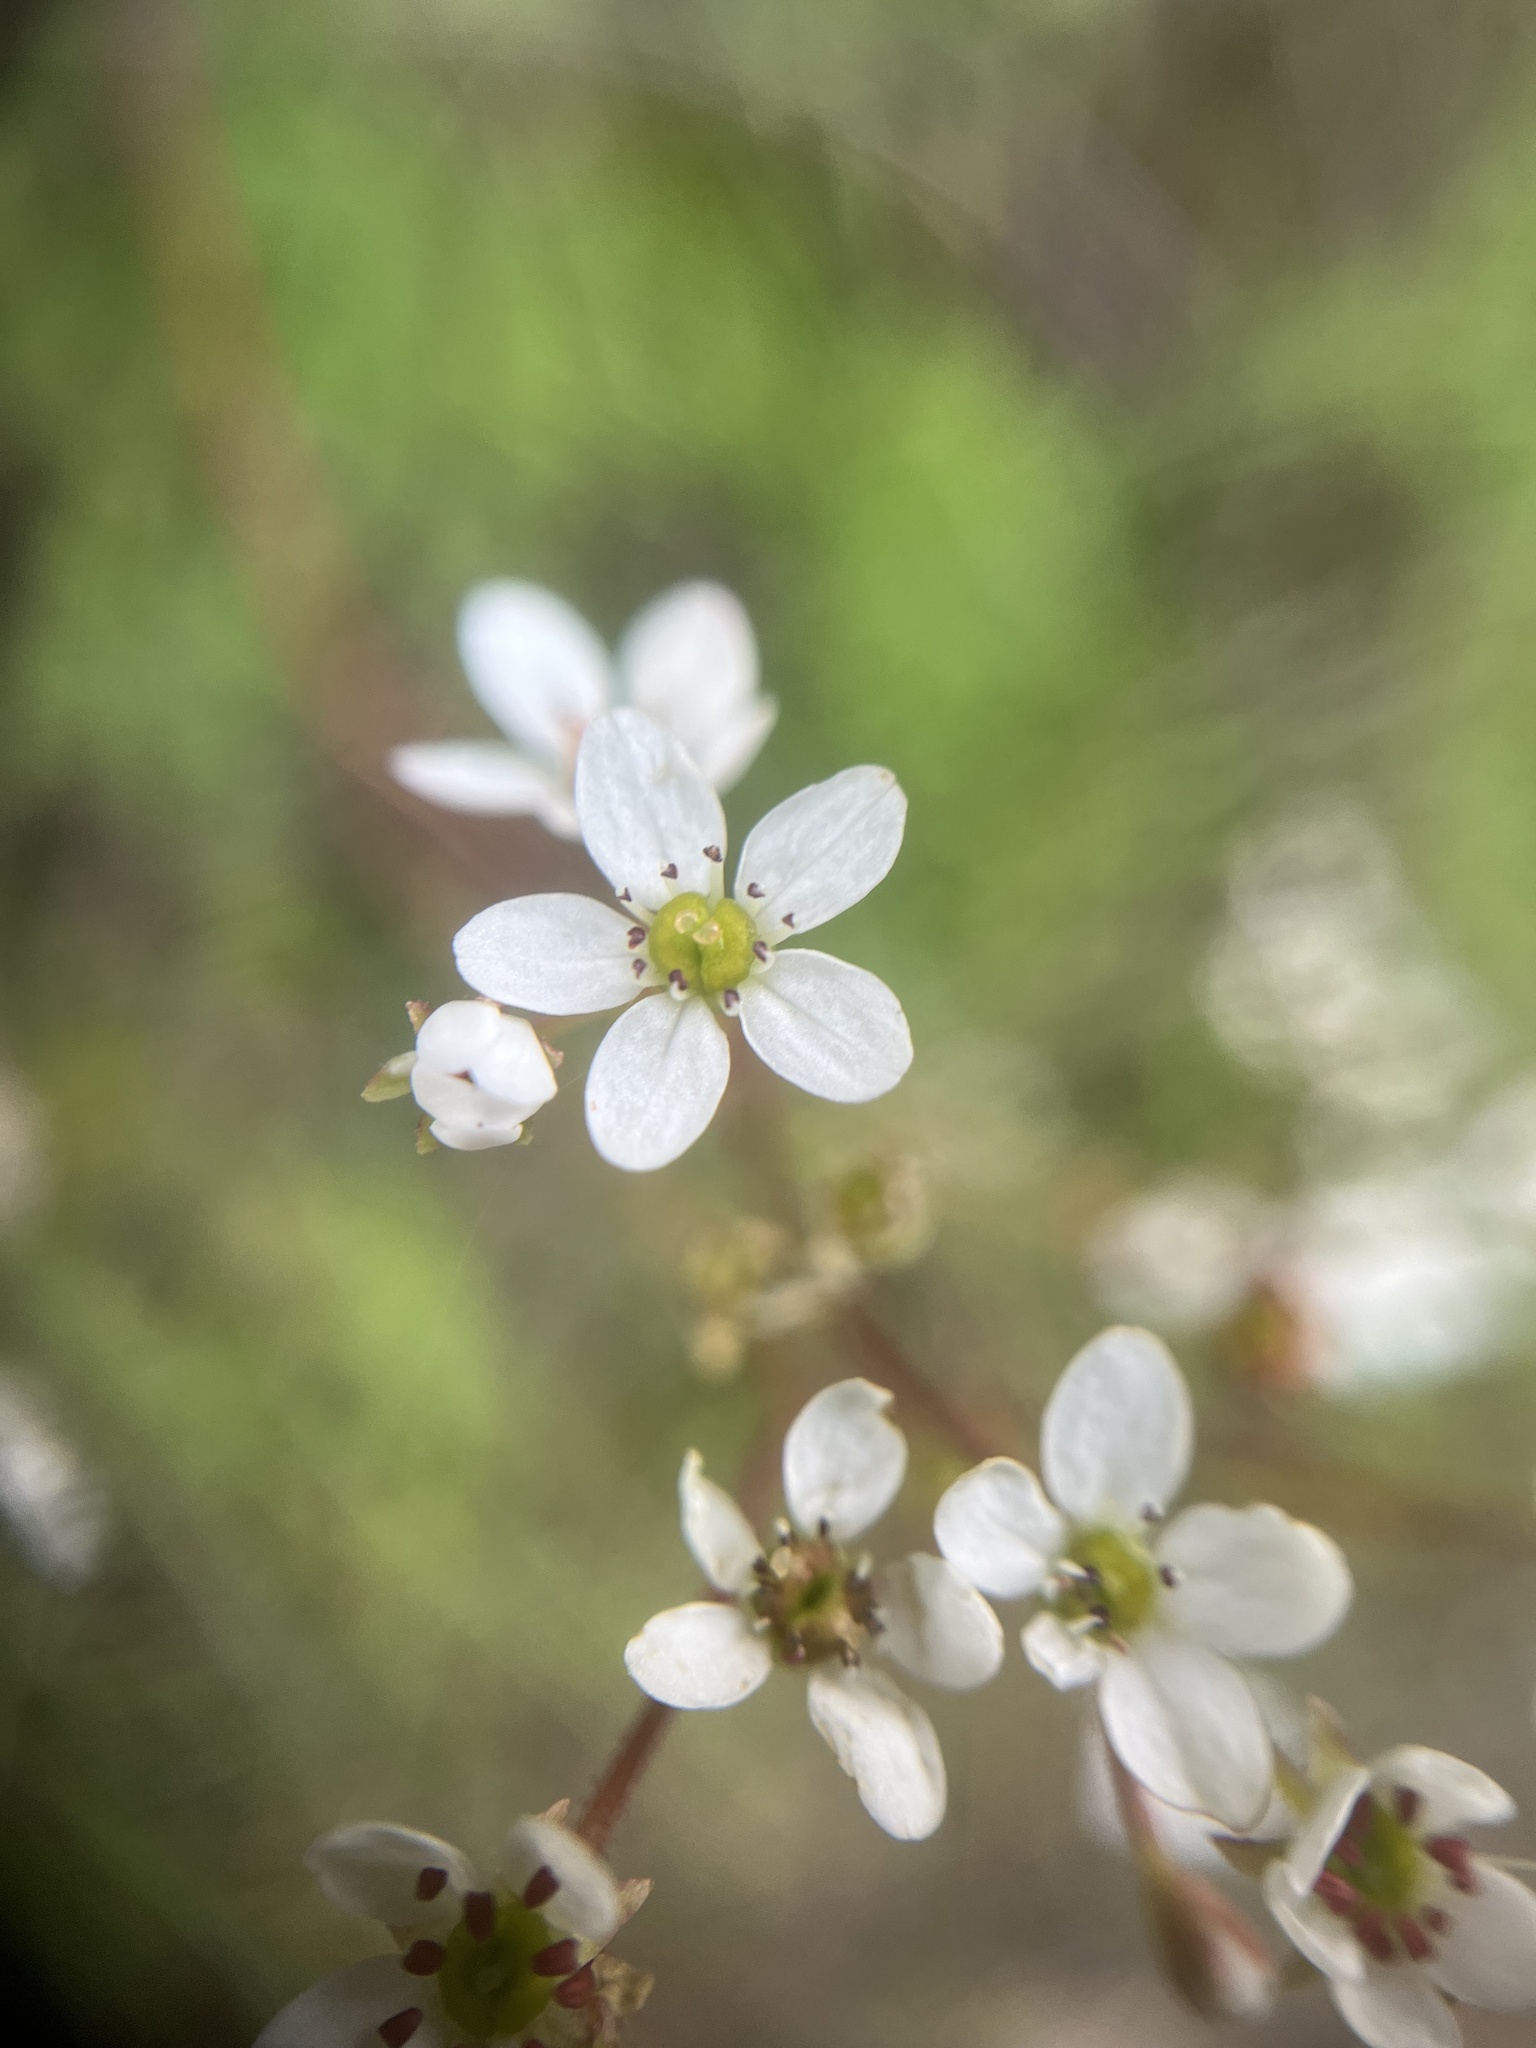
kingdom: Plantae
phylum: Tracheophyta
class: Magnoliopsida
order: Saxifragales
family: Saxifragaceae
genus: Micranthes
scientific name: Micranthes californica
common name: California saxifrage
